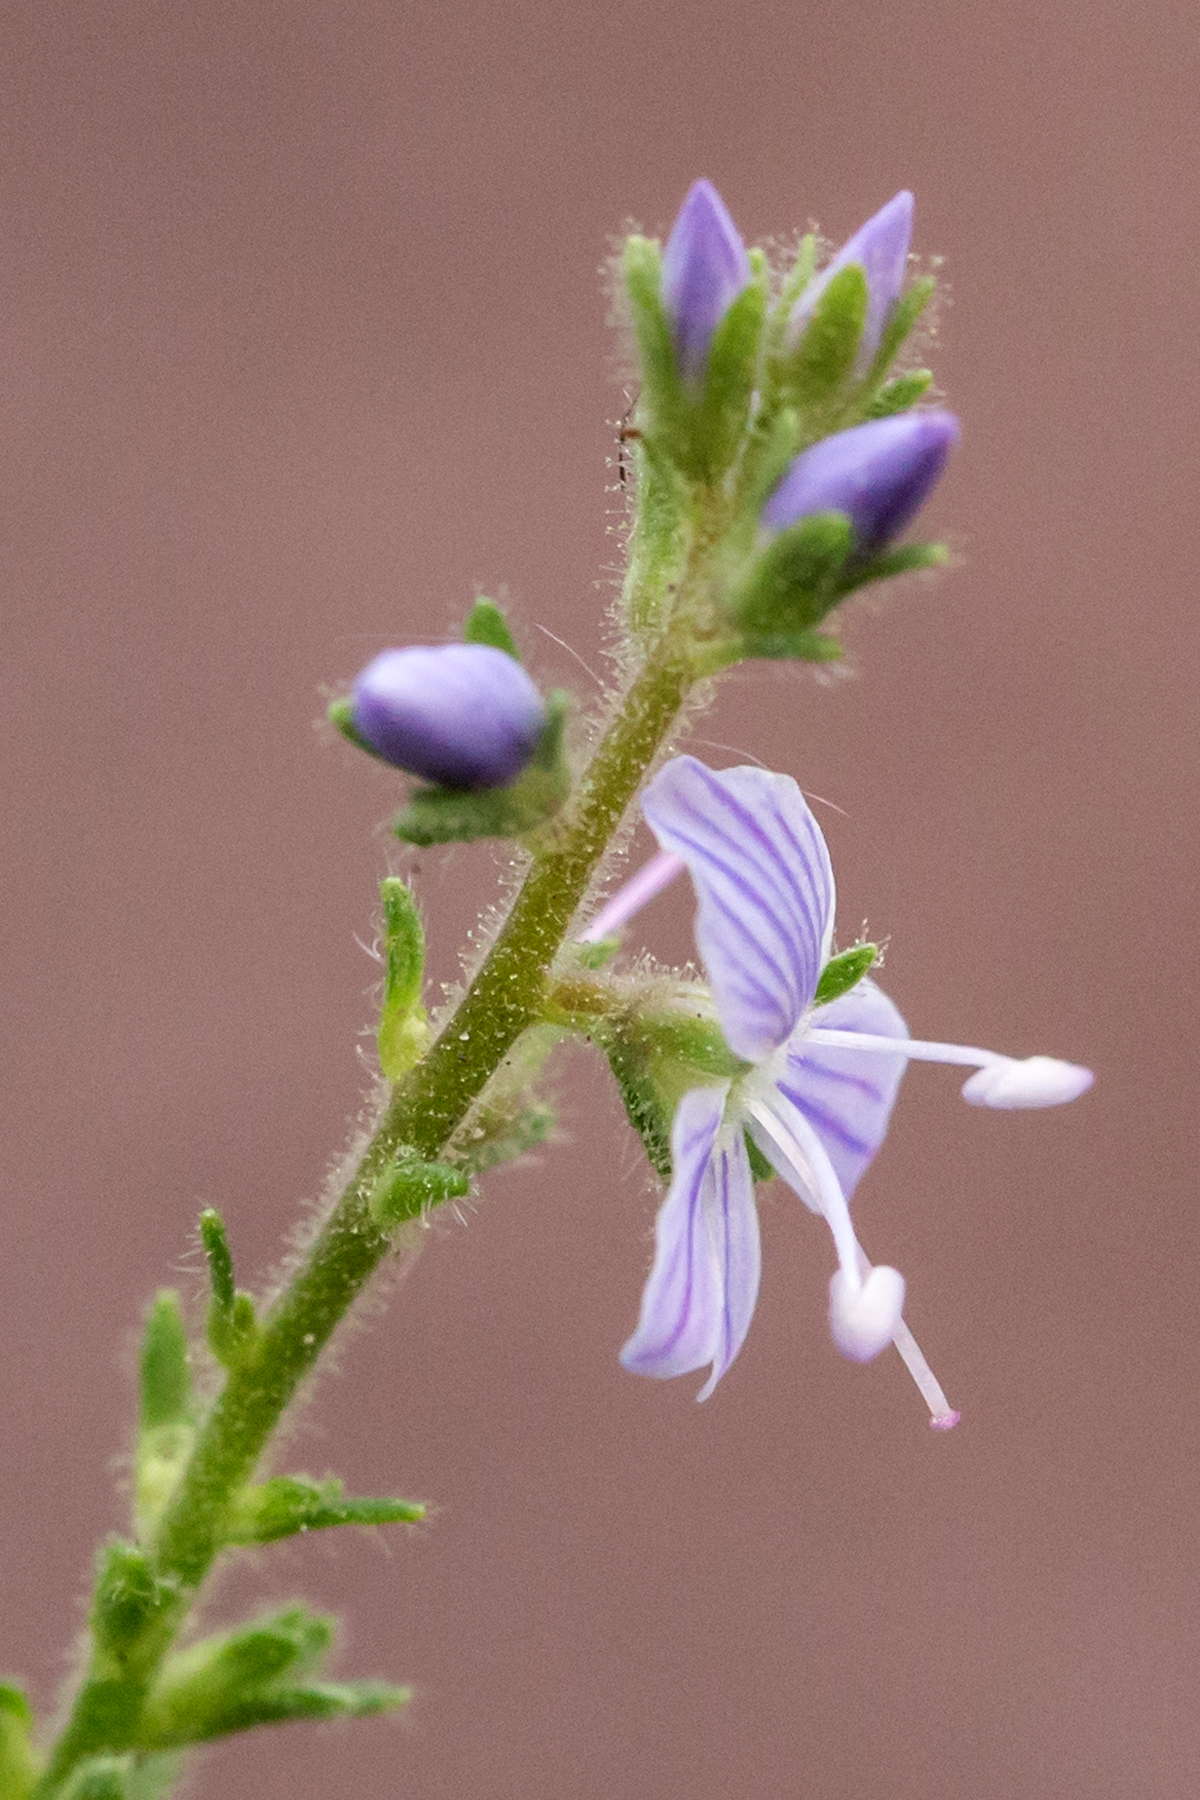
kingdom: Plantae
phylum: Tracheophyta
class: Magnoliopsida
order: Lamiales
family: Plantaginaceae
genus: Veronica
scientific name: Veronica officinalis
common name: Common speedwell
